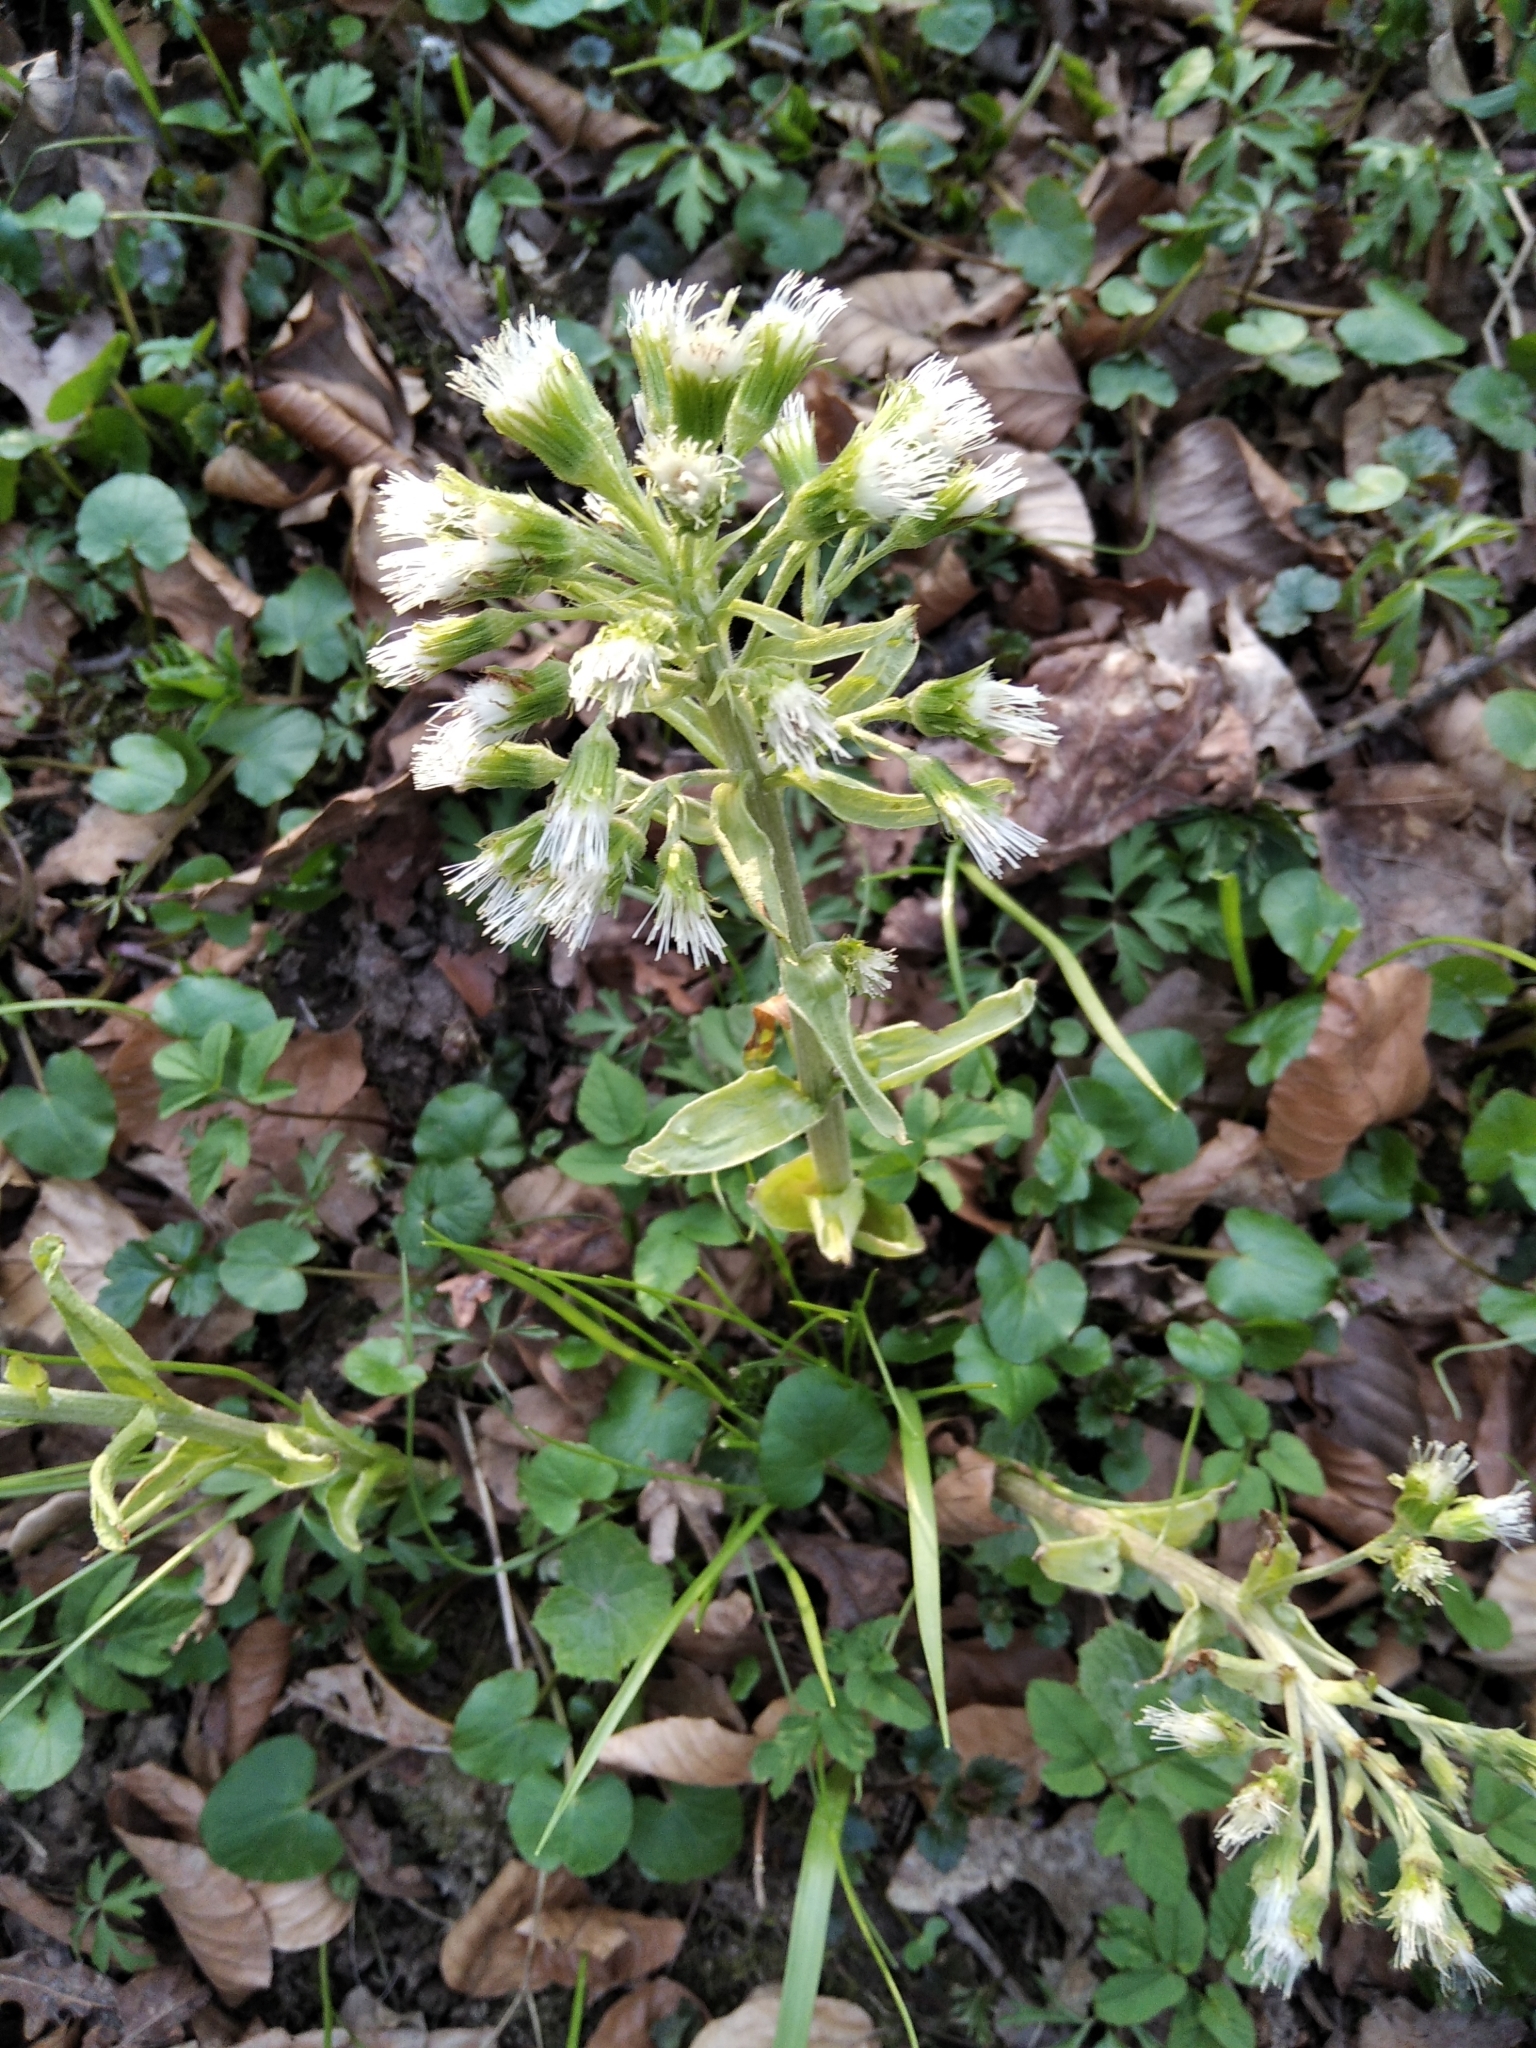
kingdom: Plantae
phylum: Tracheophyta
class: Magnoliopsida
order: Asterales
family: Asteraceae
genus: Petasites
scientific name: Petasites albus
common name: White butterbur
